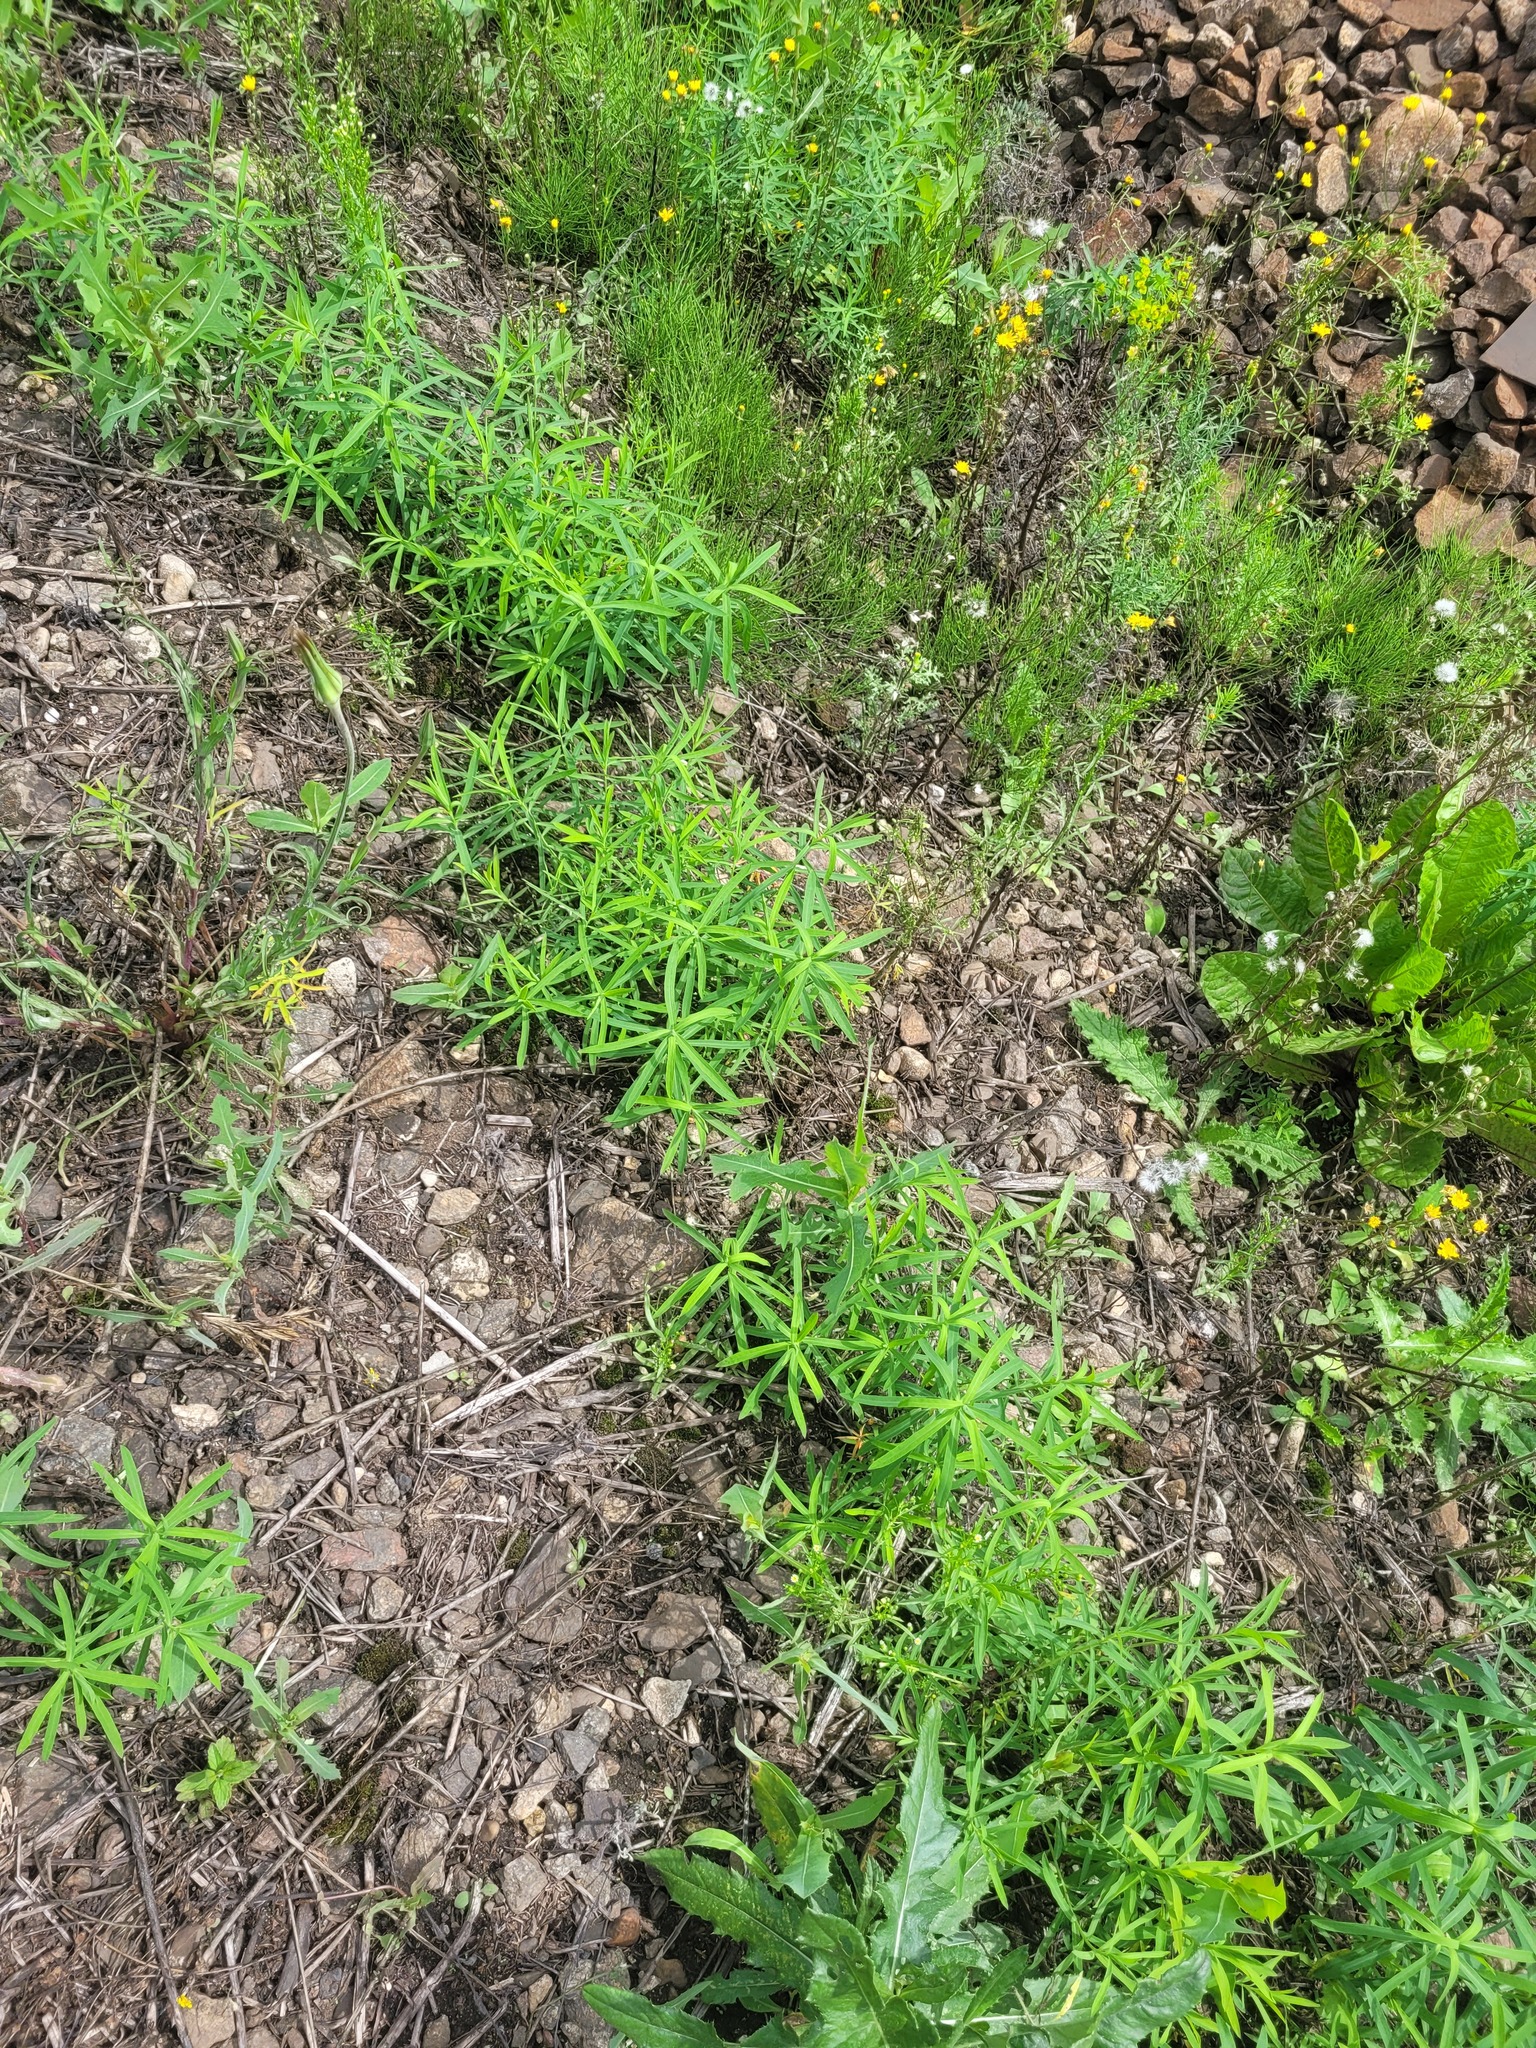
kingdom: Plantae
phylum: Tracheophyta
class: Magnoliopsida
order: Malpighiales
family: Euphorbiaceae
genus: Euphorbia
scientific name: Euphorbia virgata
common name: Leafy spurge
